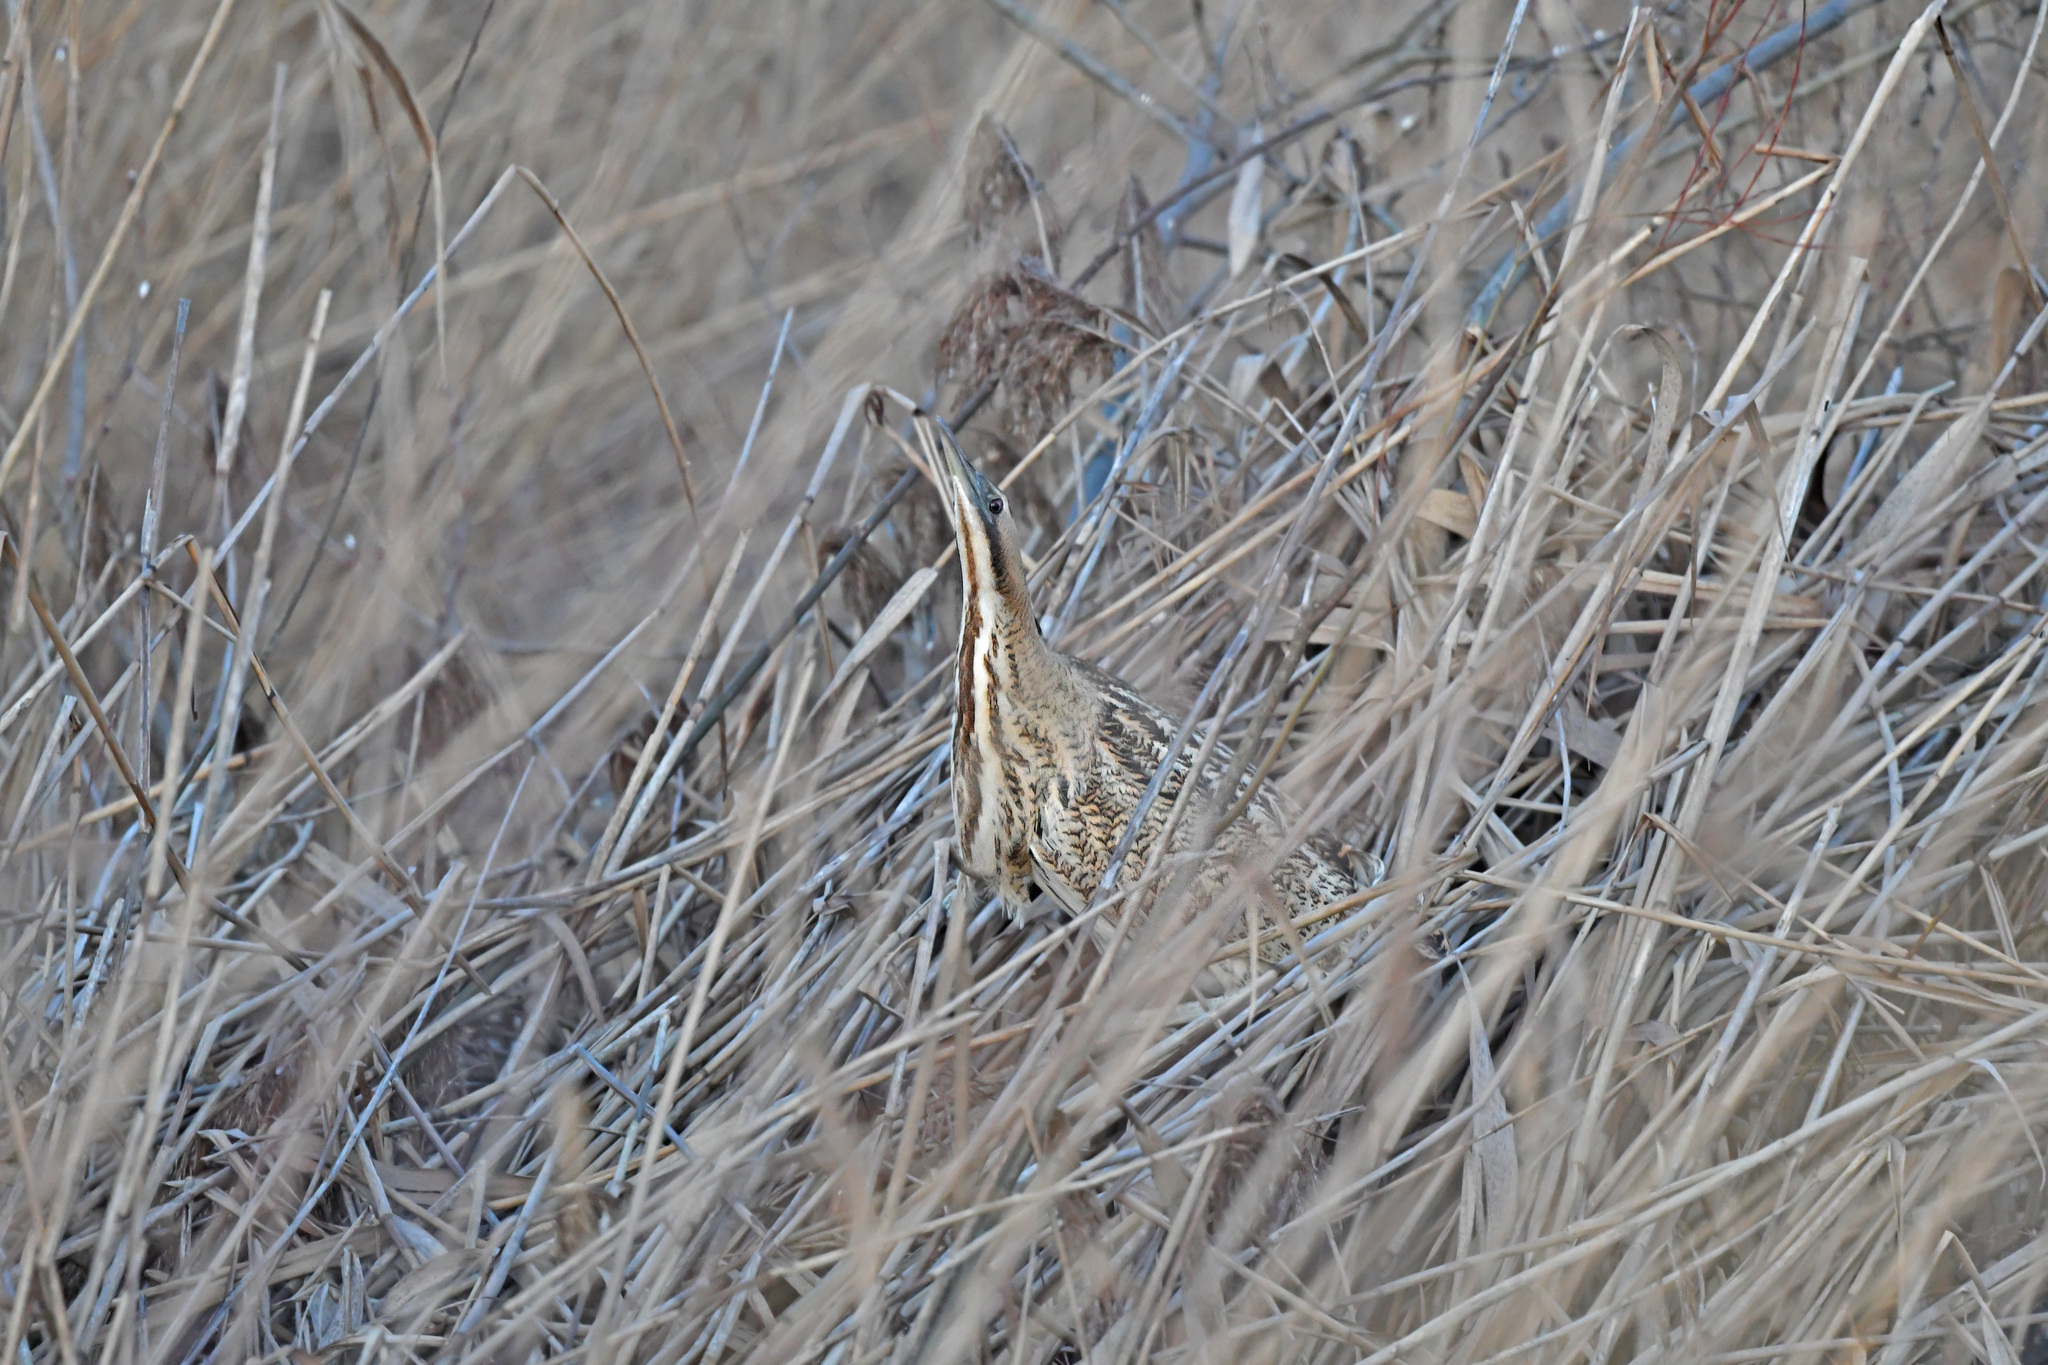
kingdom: Animalia
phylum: Chordata
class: Aves
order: Pelecaniformes
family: Ardeidae
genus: Botaurus
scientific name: Botaurus stellaris
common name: Eurasian bittern
